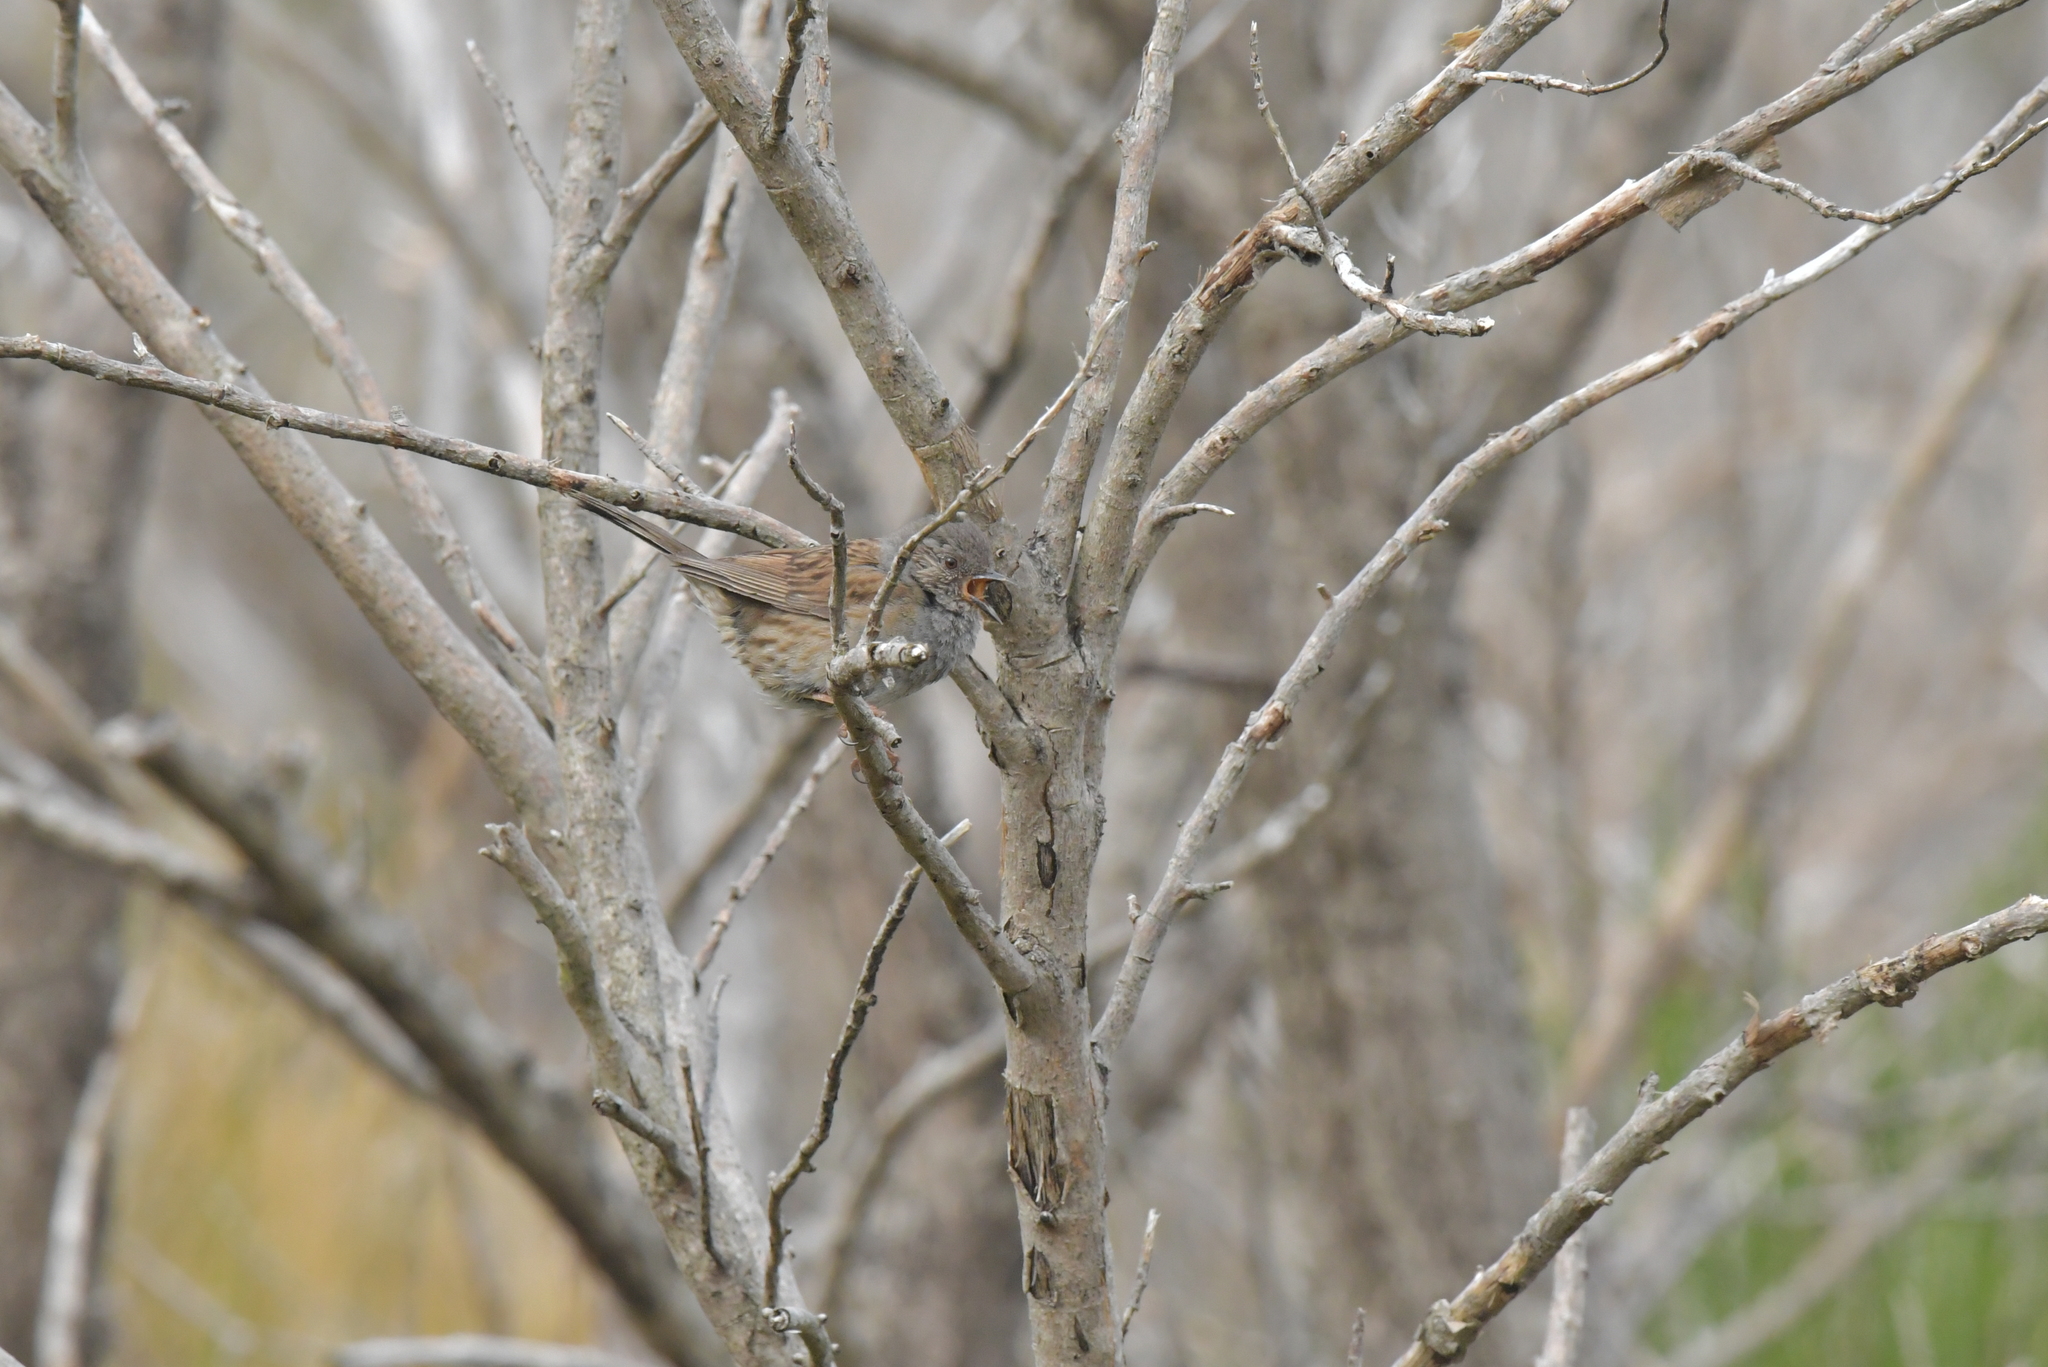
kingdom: Animalia
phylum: Chordata
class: Aves
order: Passeriformes
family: Prunellidae
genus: Prunella
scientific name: Prunella modularis
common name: Dunnock
